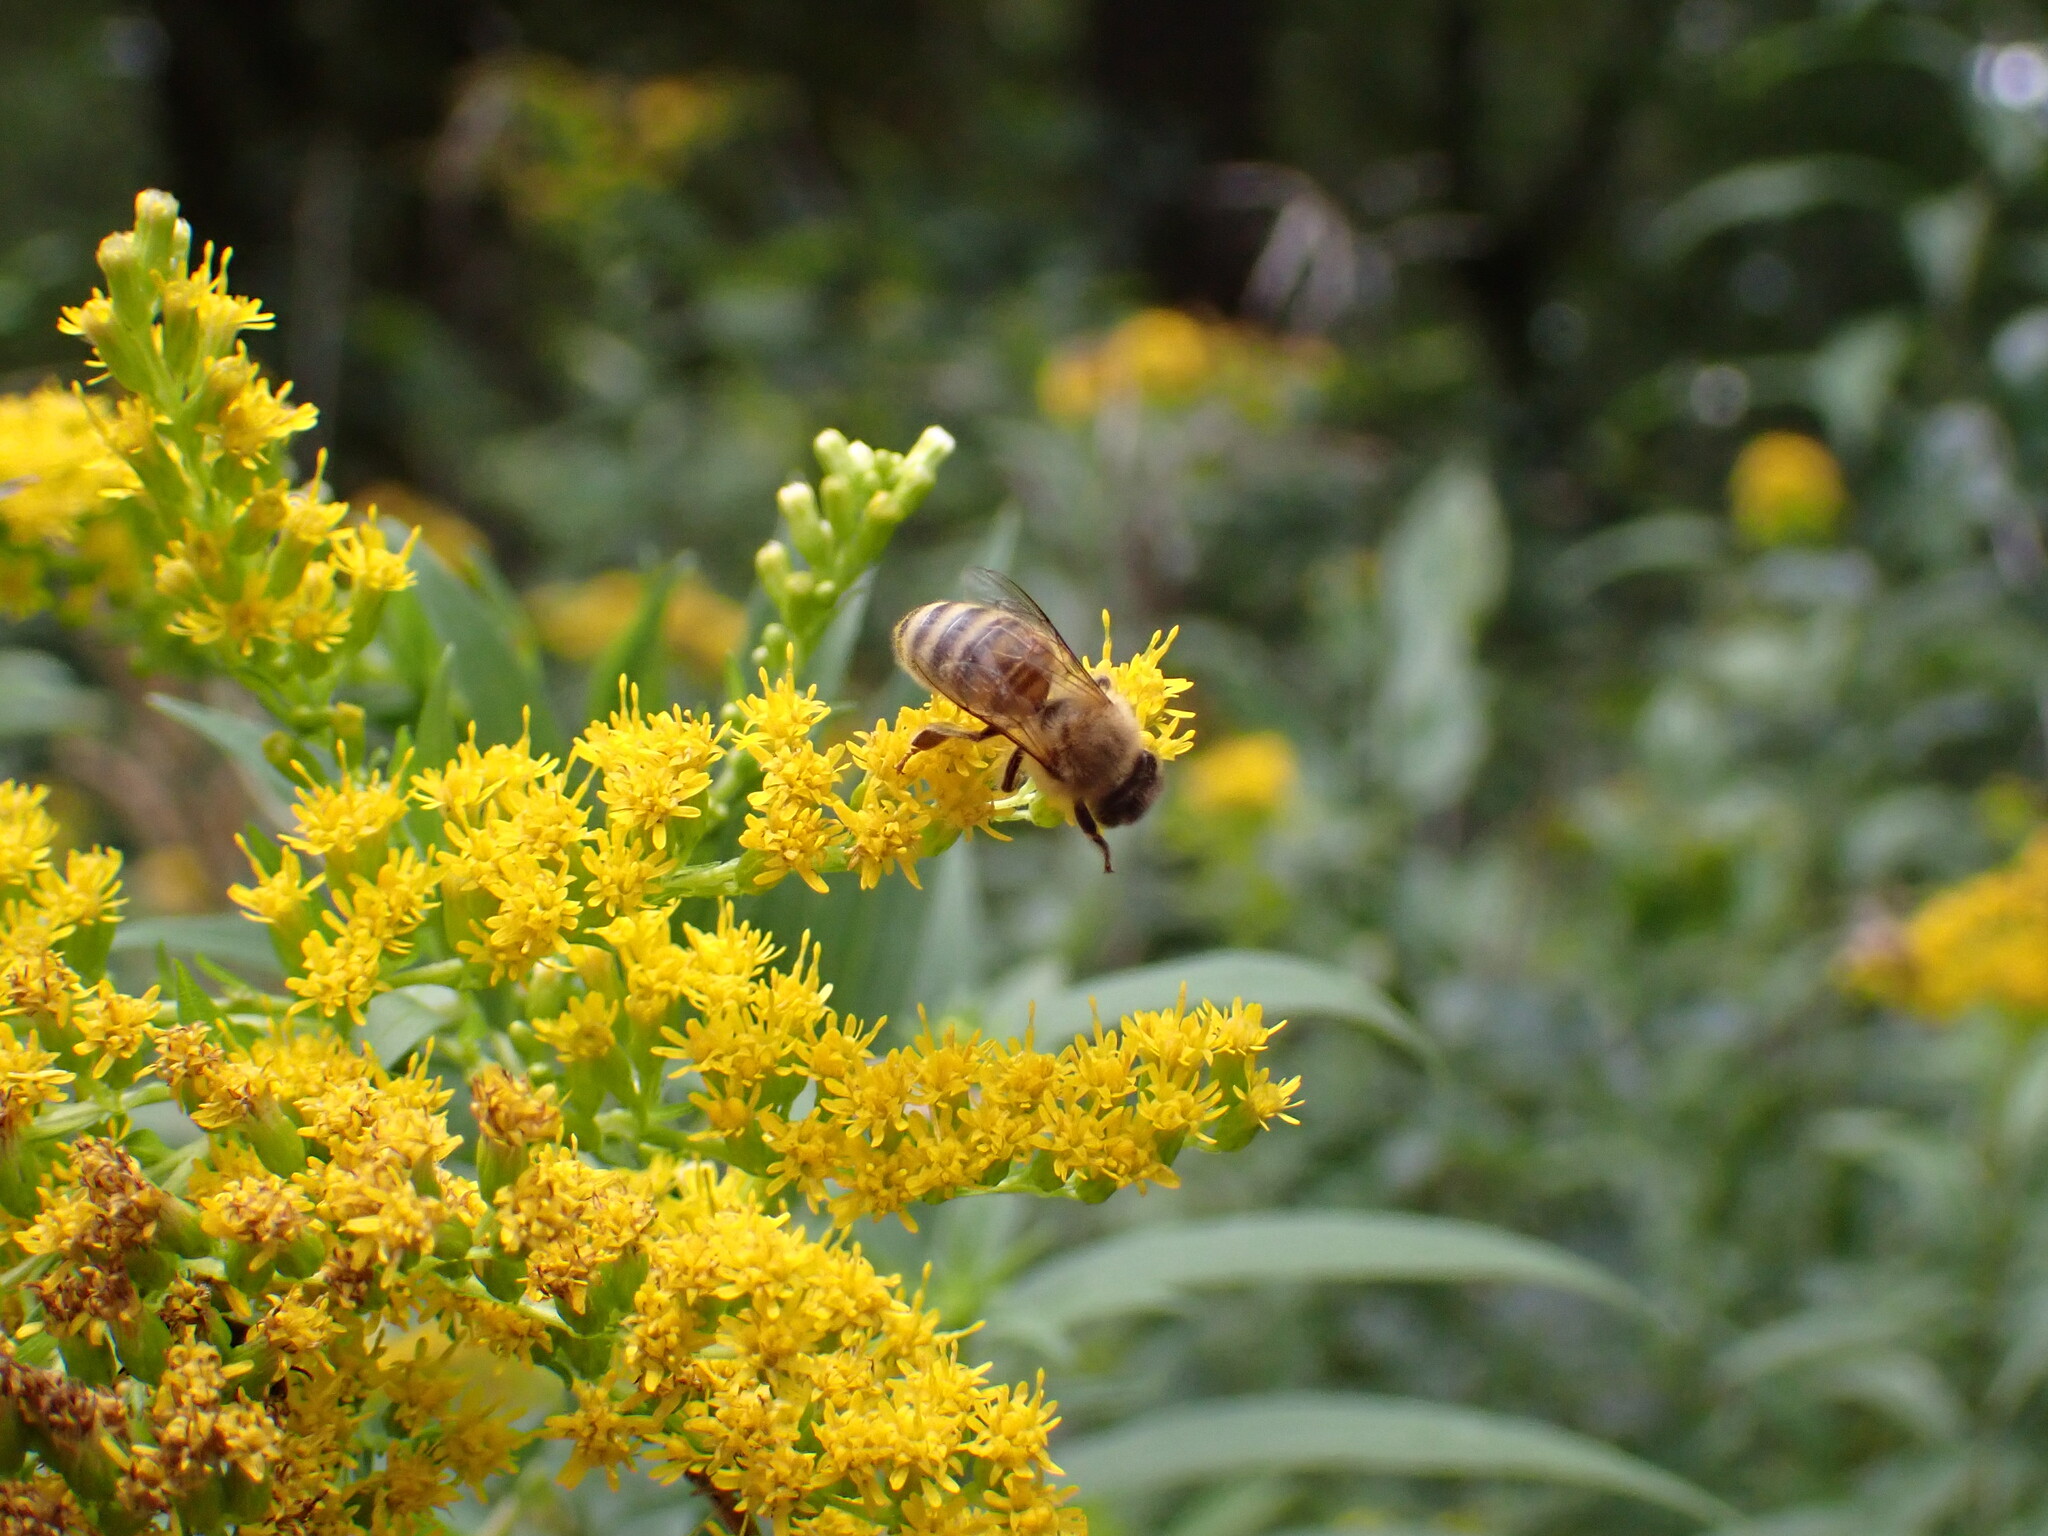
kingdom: Animalia
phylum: Arthropoda
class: Insecta
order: Hymenoptera
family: Apidae
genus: Apis
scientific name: Apis mellifera
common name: Honey bee
